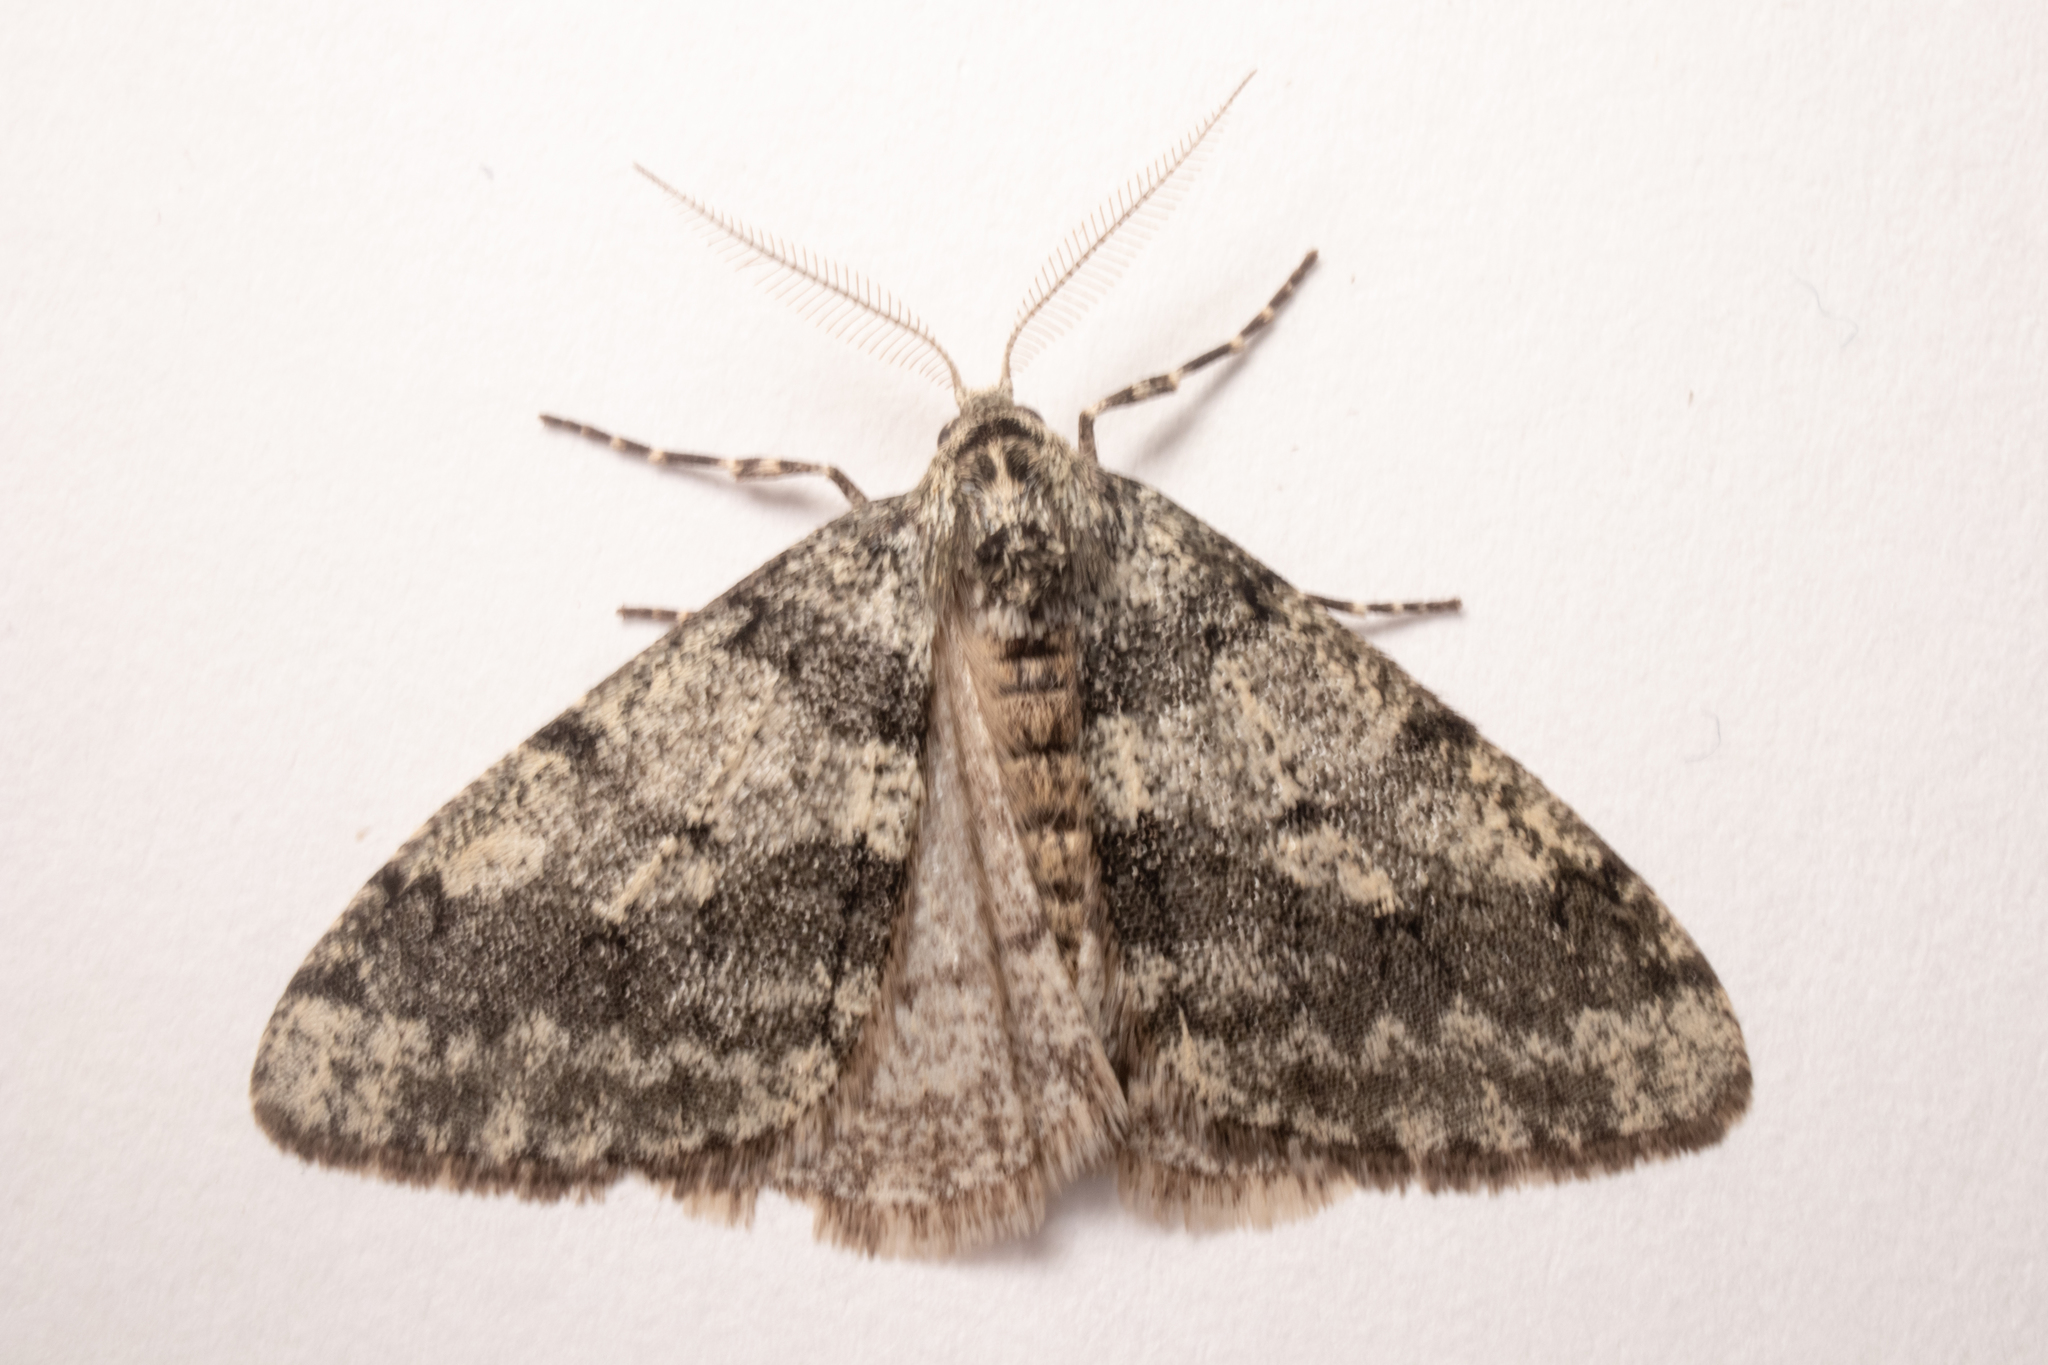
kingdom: Animalia
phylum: Arthropoda
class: Insecta
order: Lepidoptera
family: Geometridae
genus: Phigalia
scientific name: Phigalia strigataria
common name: Small phigalia
